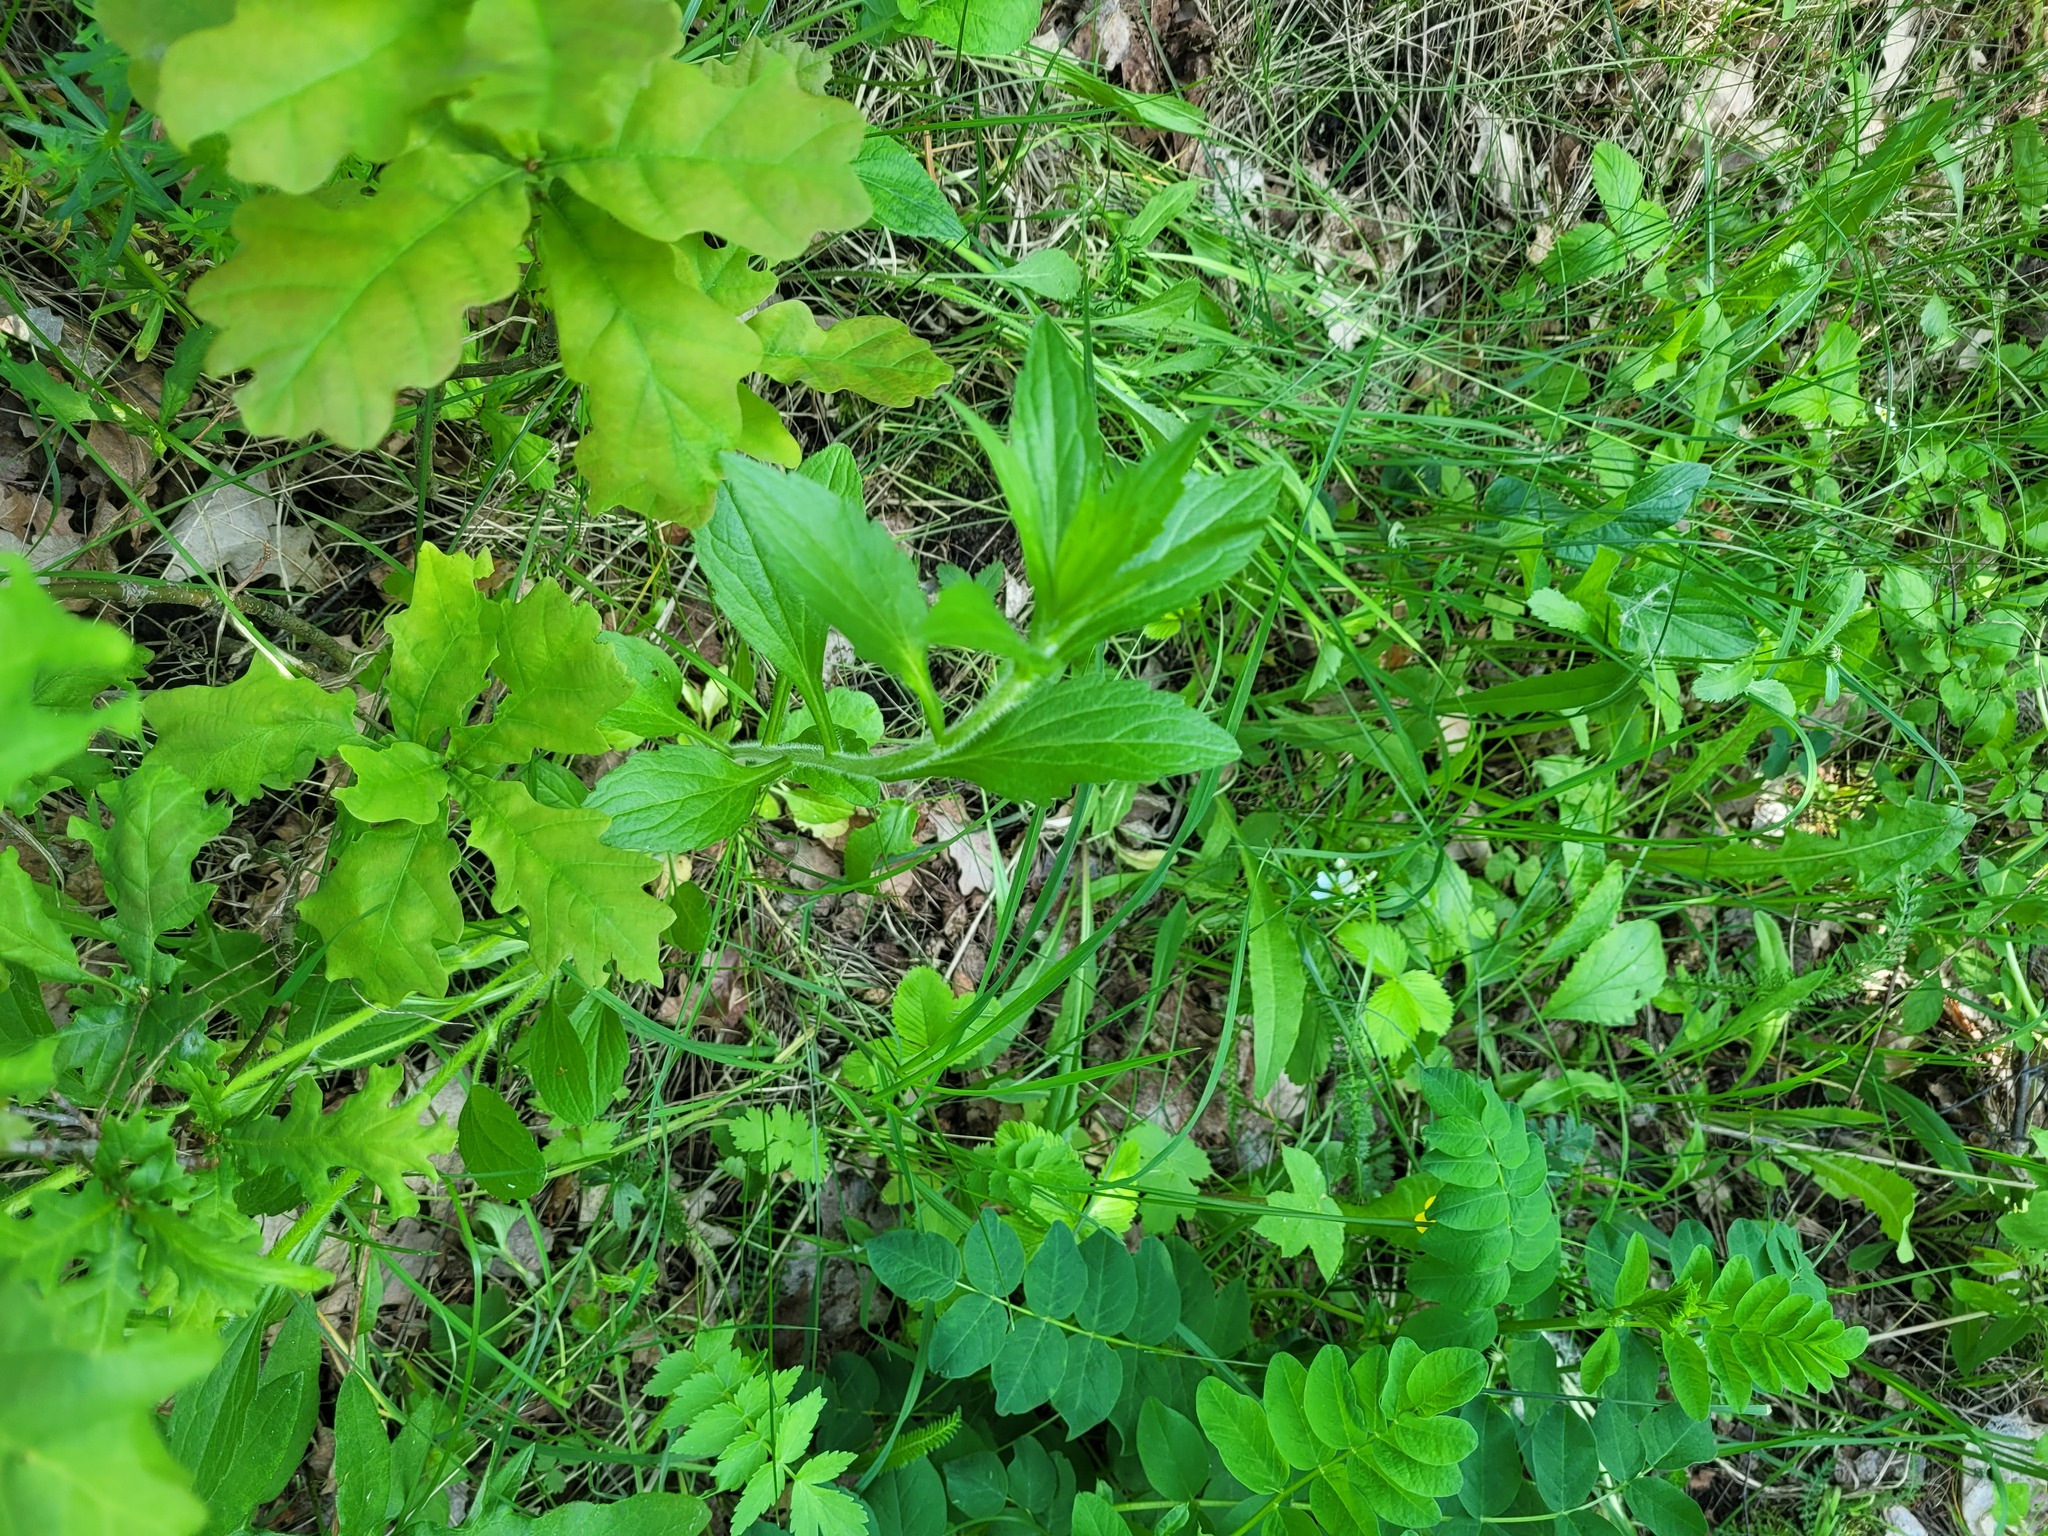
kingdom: Plantae
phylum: Tracheophyta
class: Magnoliopsida
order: Asterales
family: Asteraceae
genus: Erigeron
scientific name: Erigeron annuus
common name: Tall fleabane
